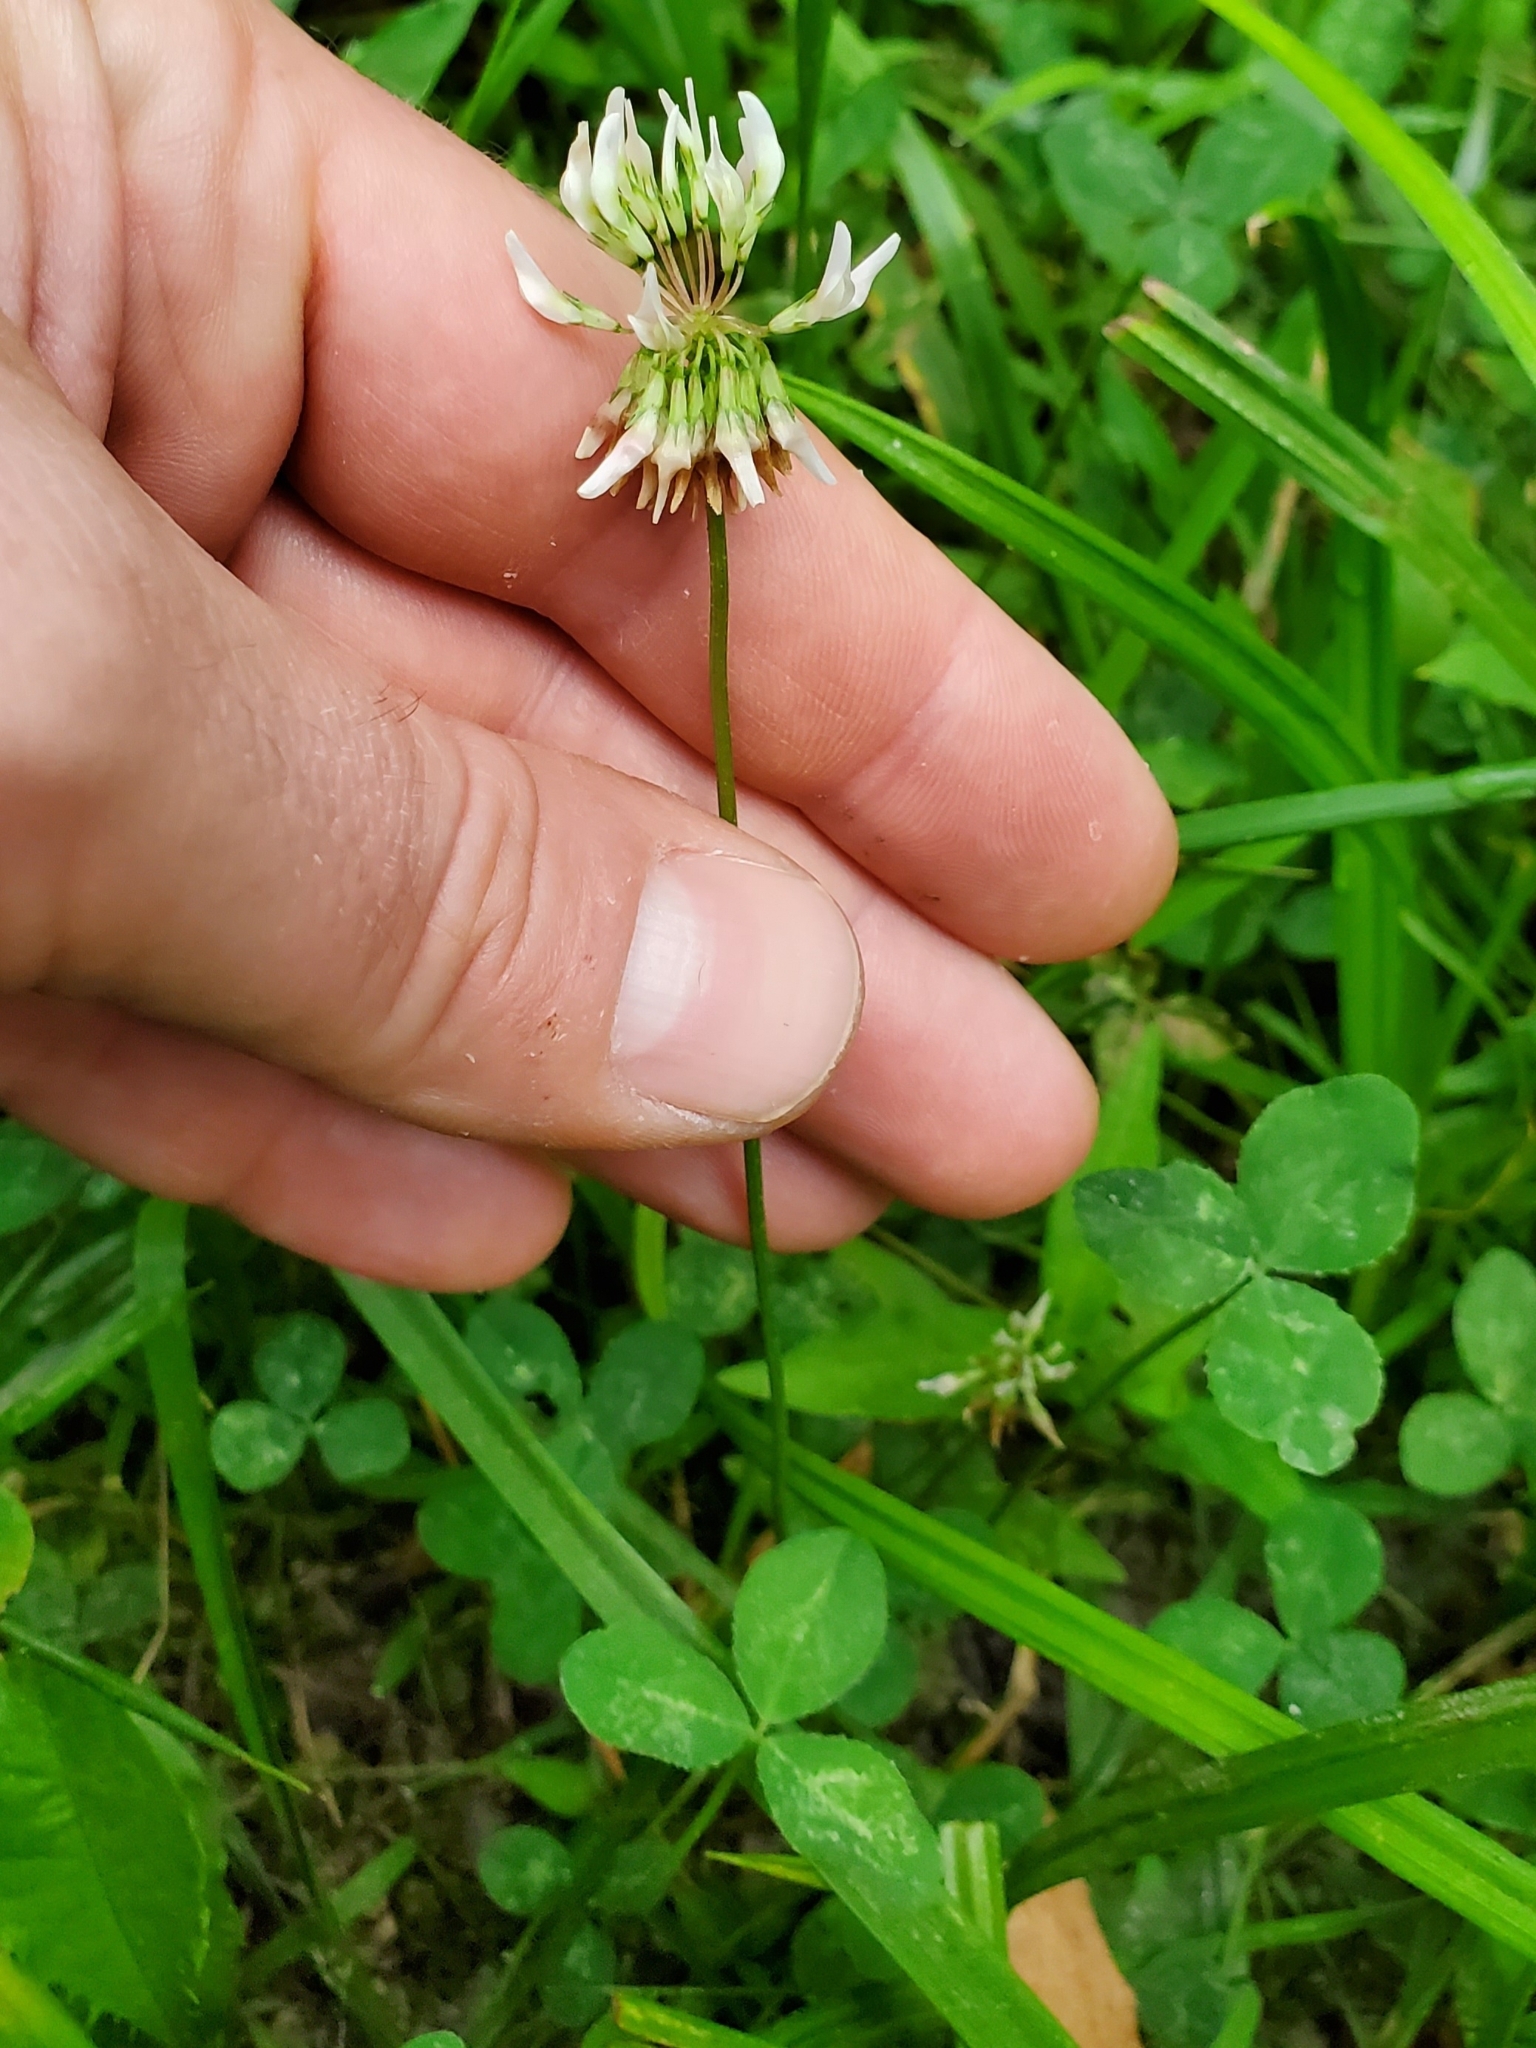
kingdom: Plantae
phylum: Tracheophyta
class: Magnoliopsida
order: Fabales
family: Fabaceae
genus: Trifolium
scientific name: Trifolium repens
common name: White clover
